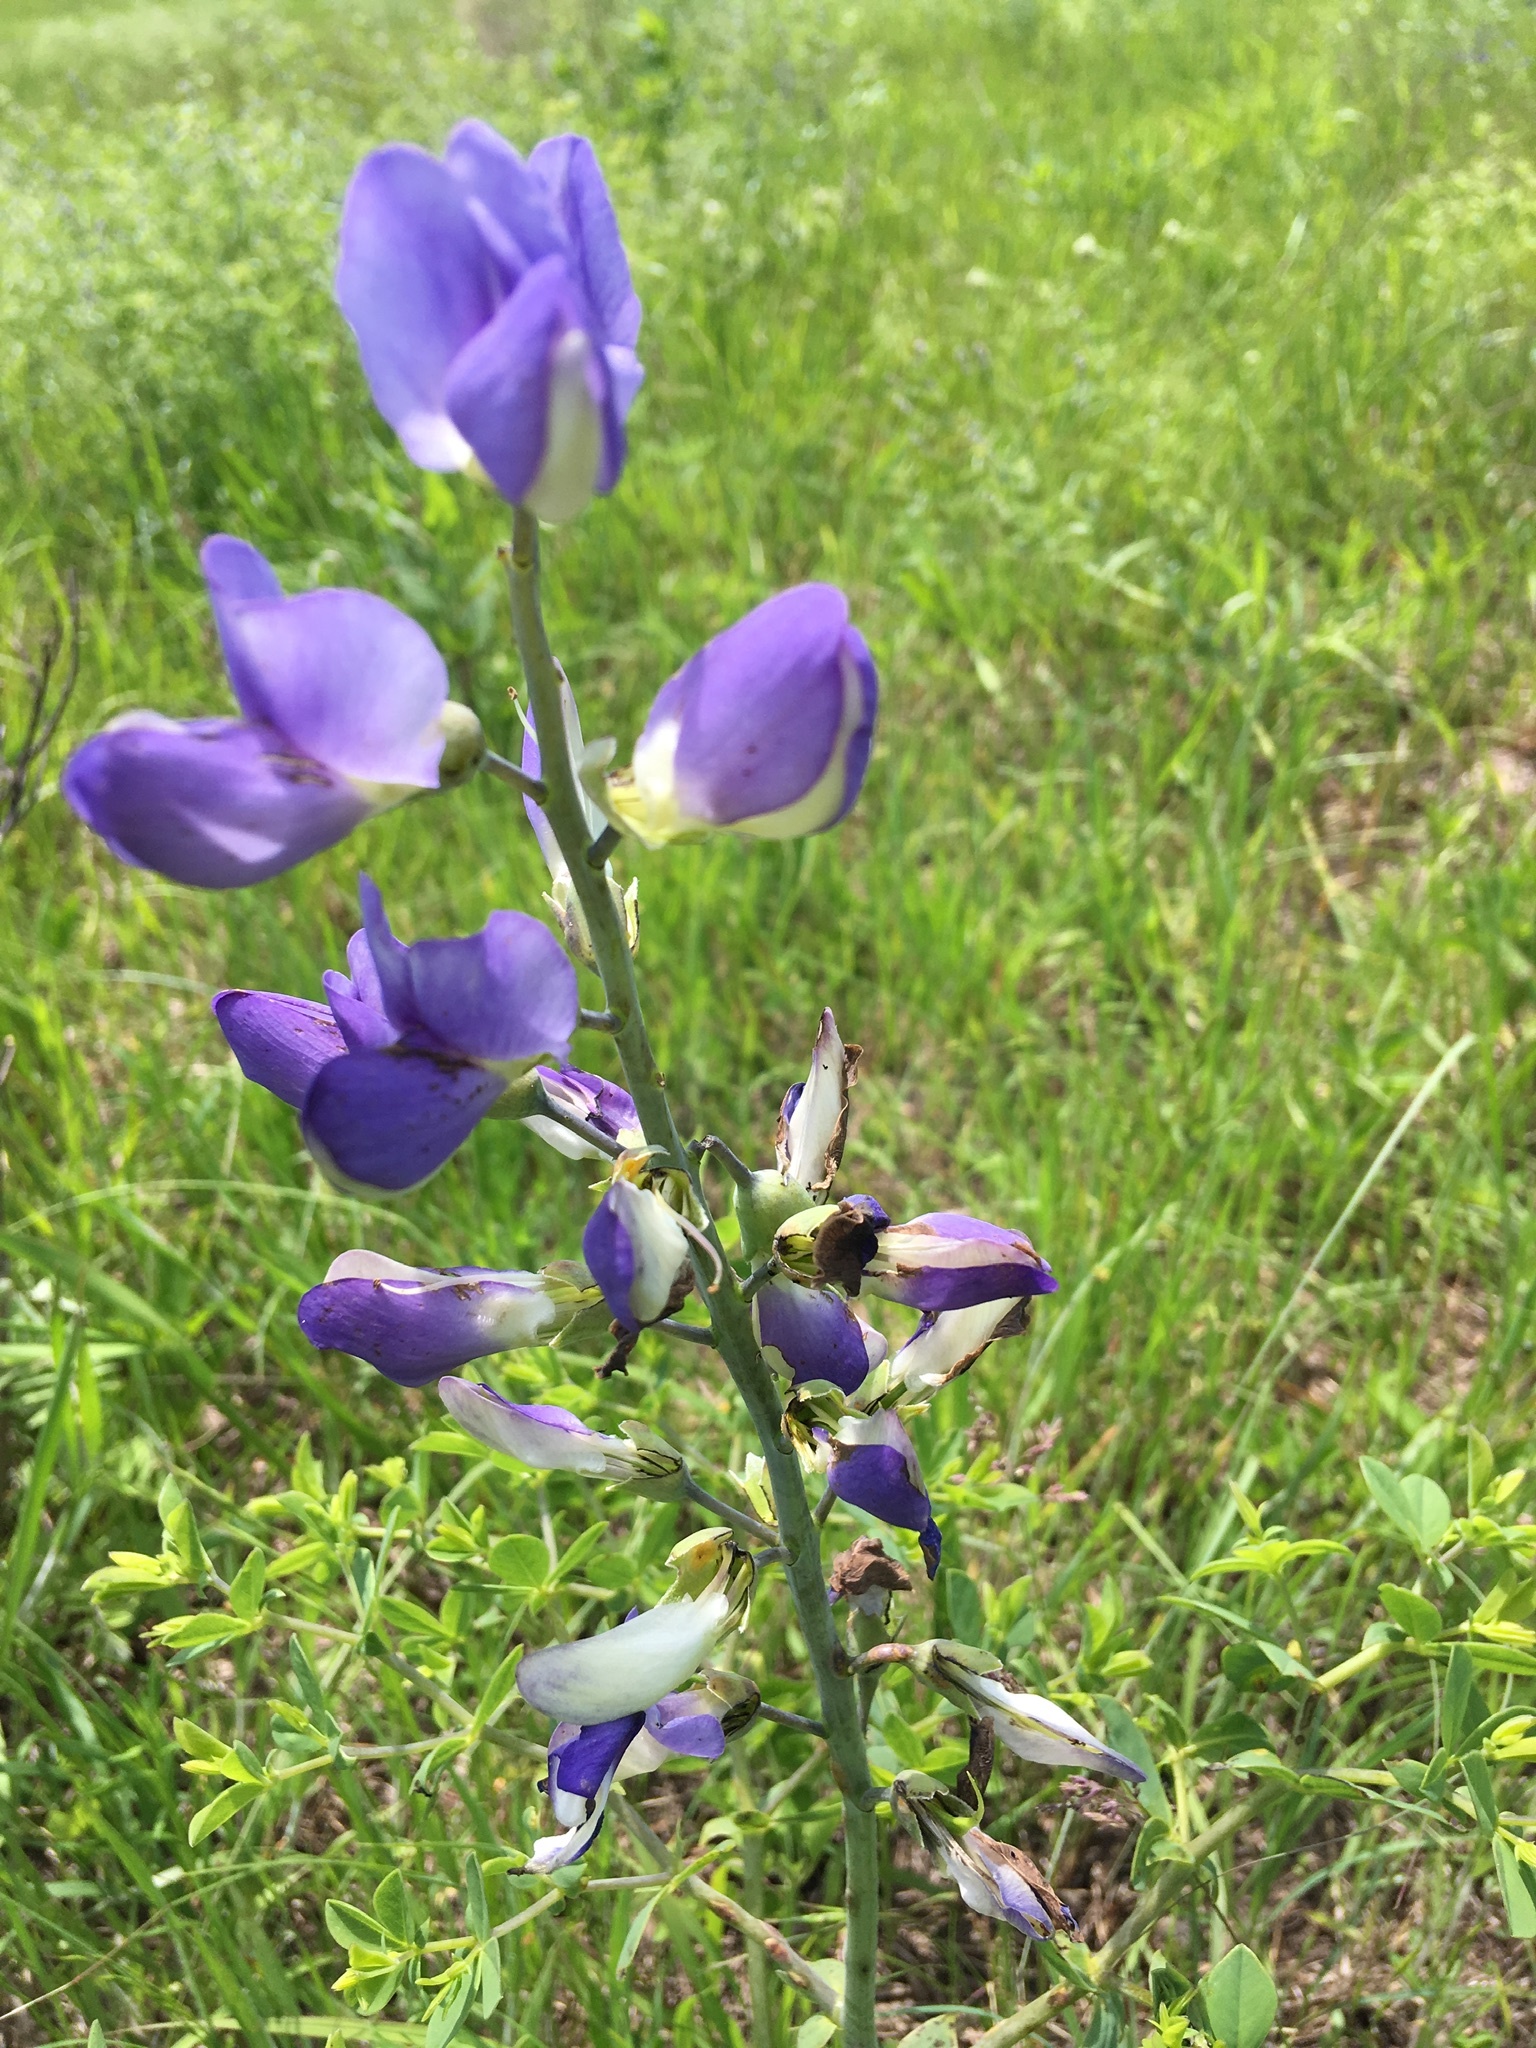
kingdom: Plantae
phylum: Tracheophyta
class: Magnoliopsida
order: Fabales
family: Fabaceae
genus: Baptisia
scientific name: Baptisia australis
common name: Blue false indigo
